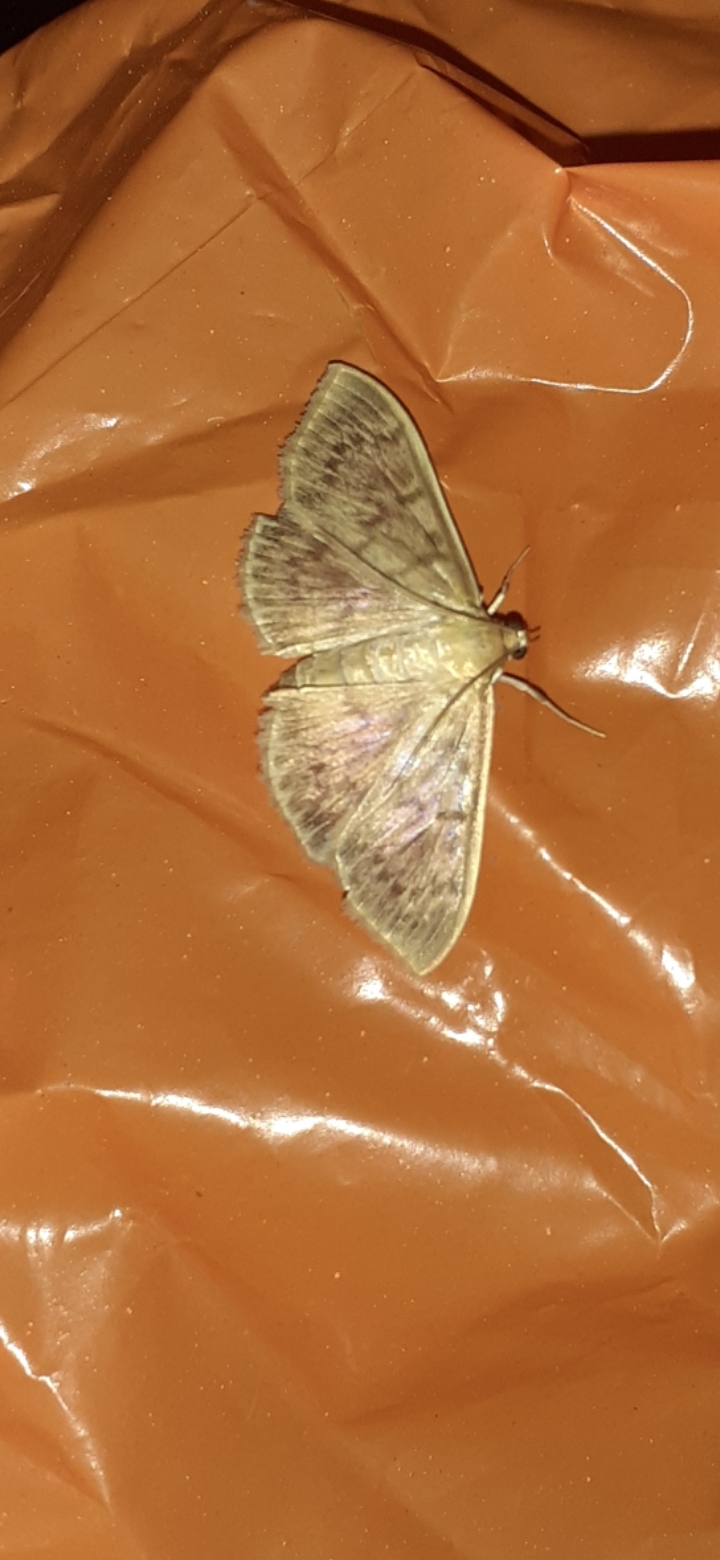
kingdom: Animalia
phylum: Arthropoda
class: Insecta
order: Lepidoptera
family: Crambidae
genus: Patania
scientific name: Patania ruralis
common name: Mother of pearl
